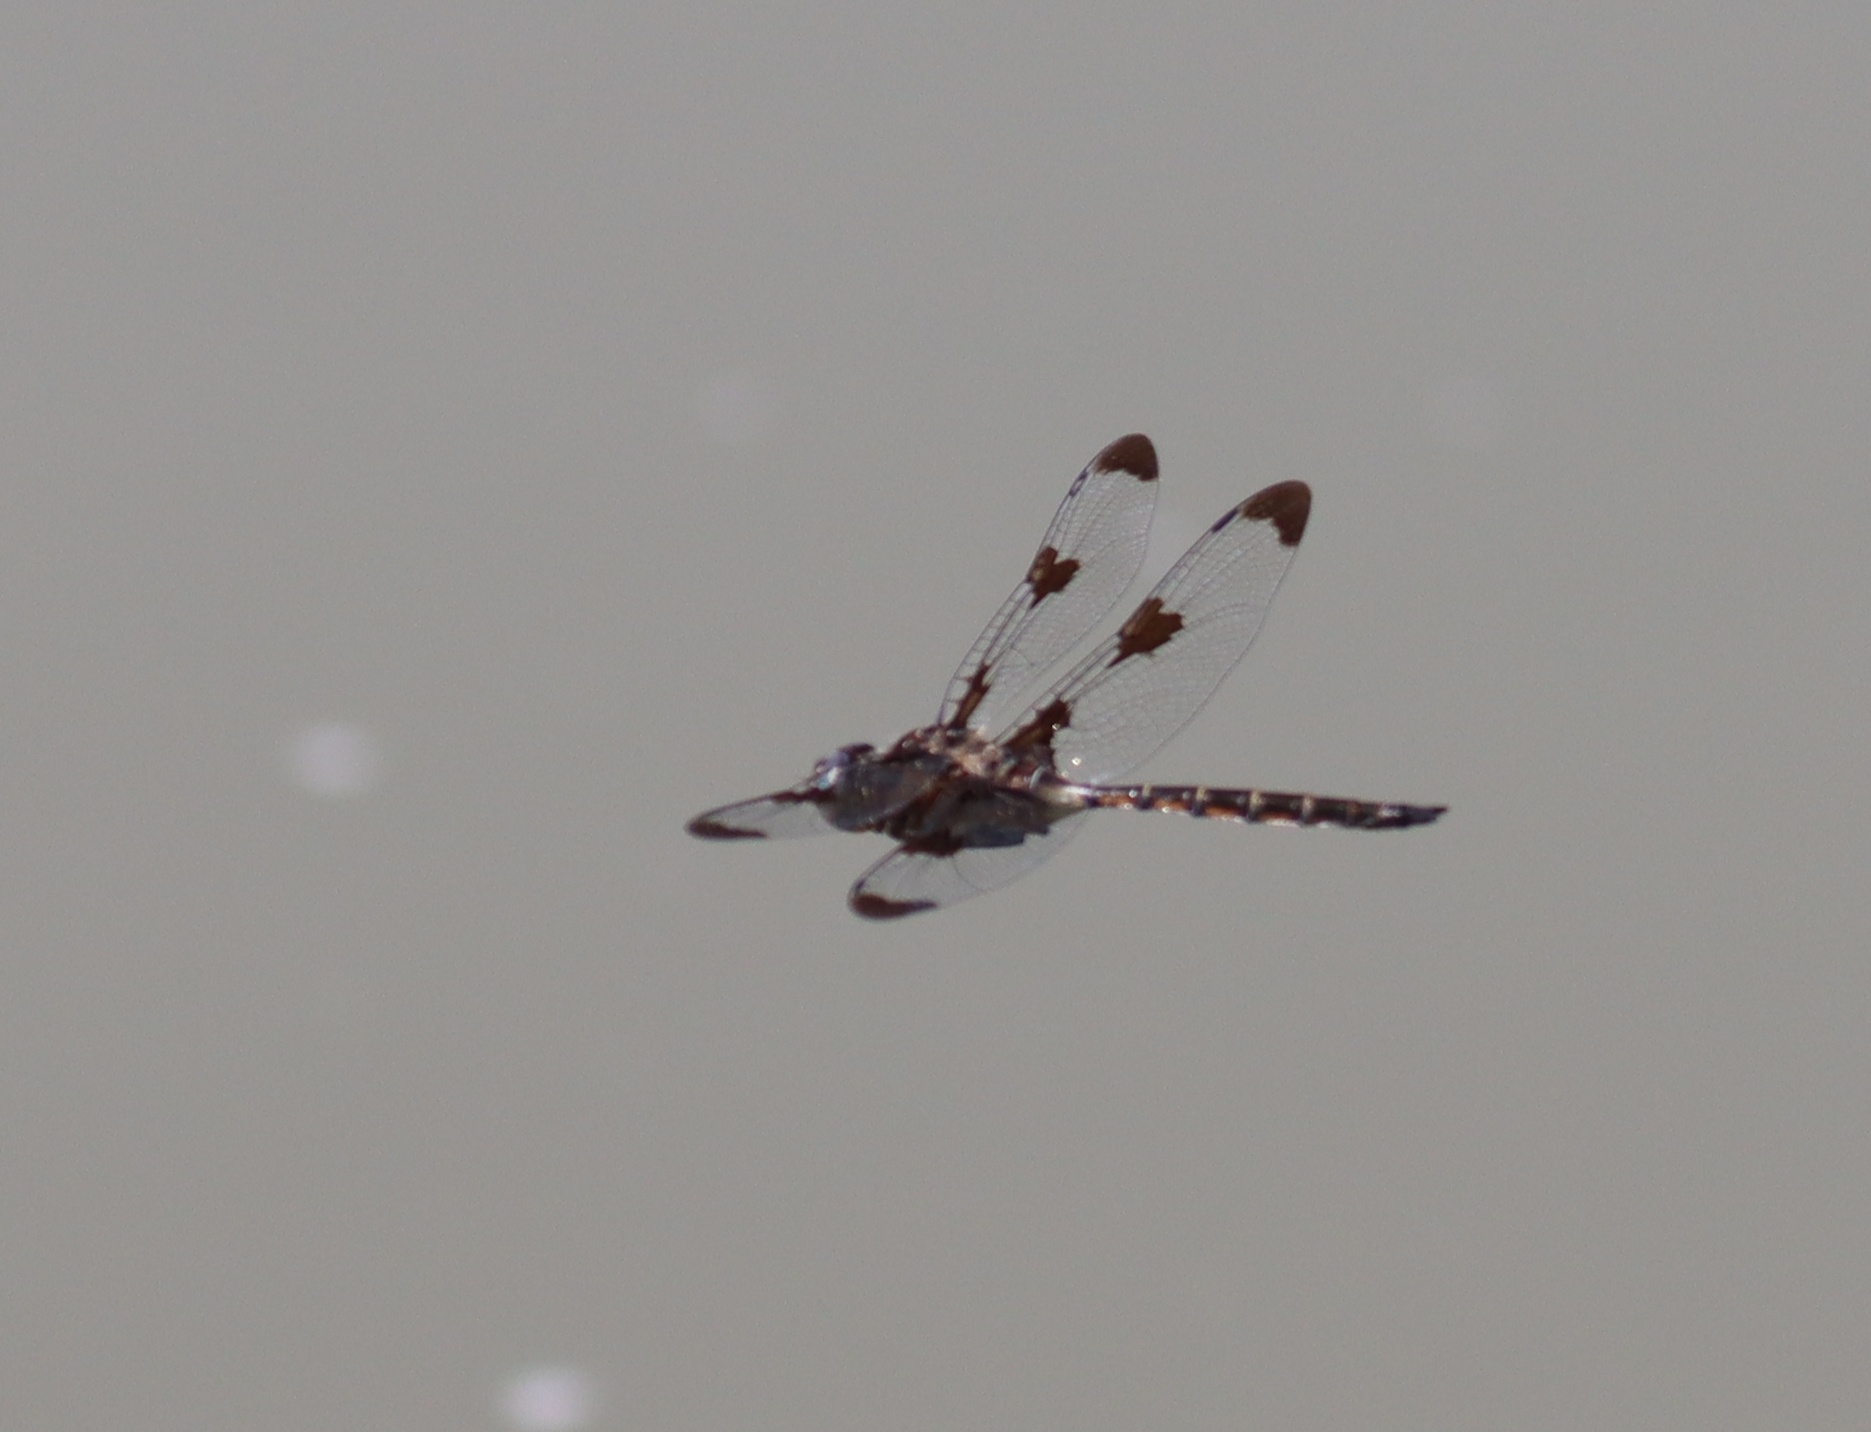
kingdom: Animalia
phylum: Arthropoda
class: Insecta
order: Odonata
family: Corduliidae
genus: Epitheca
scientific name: Epitheca princeps
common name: Prince baskettail
